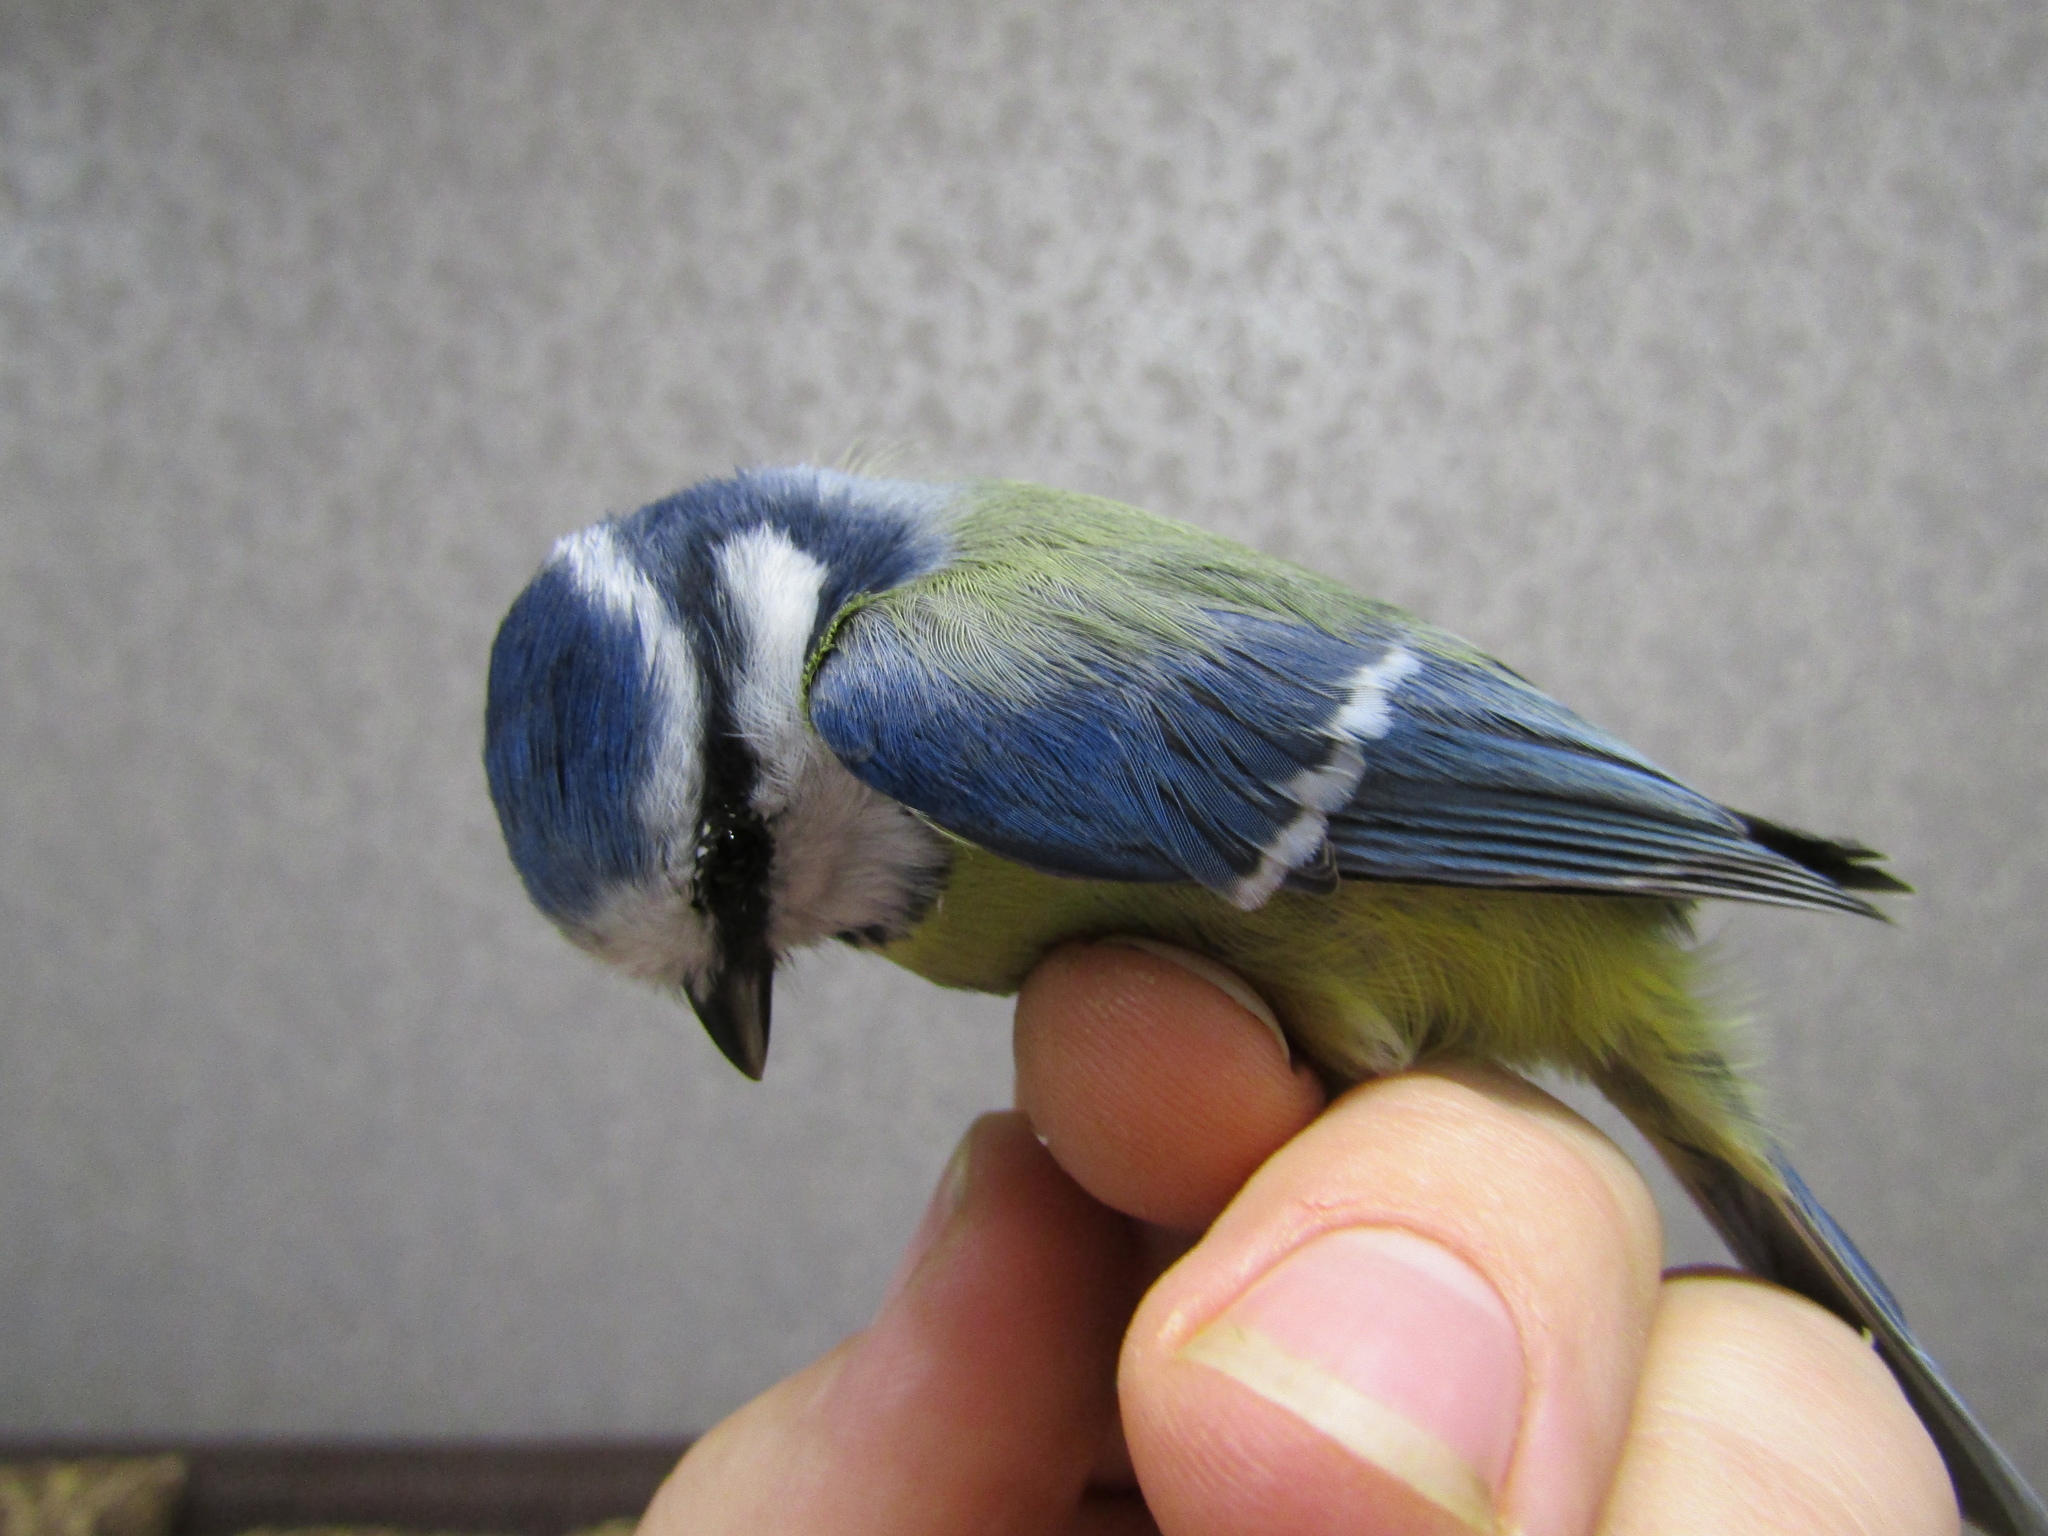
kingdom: Animalia
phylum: Chordata
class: Aves
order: Passeriformes
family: Paridae
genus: Cyanistes
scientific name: Cyanistes caeruleus
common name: Eurasian blue tit
